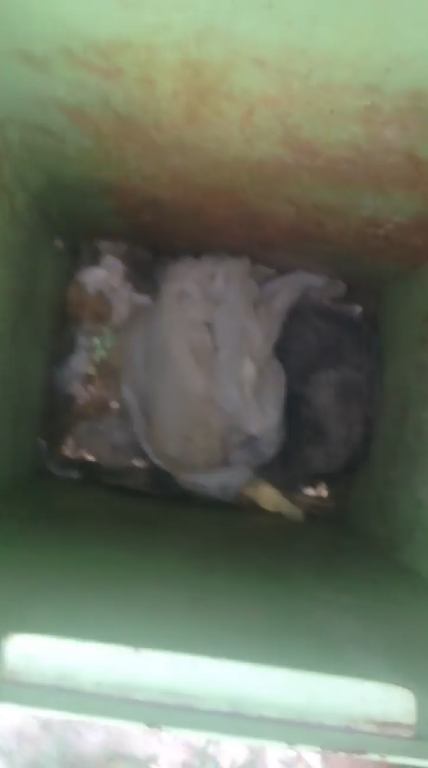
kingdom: Animalia
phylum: Chordata
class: Mammalia
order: Didelphimorphia
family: Didelphidae
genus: Didelphis
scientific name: Didelphis virginiana
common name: Virginia opossum
